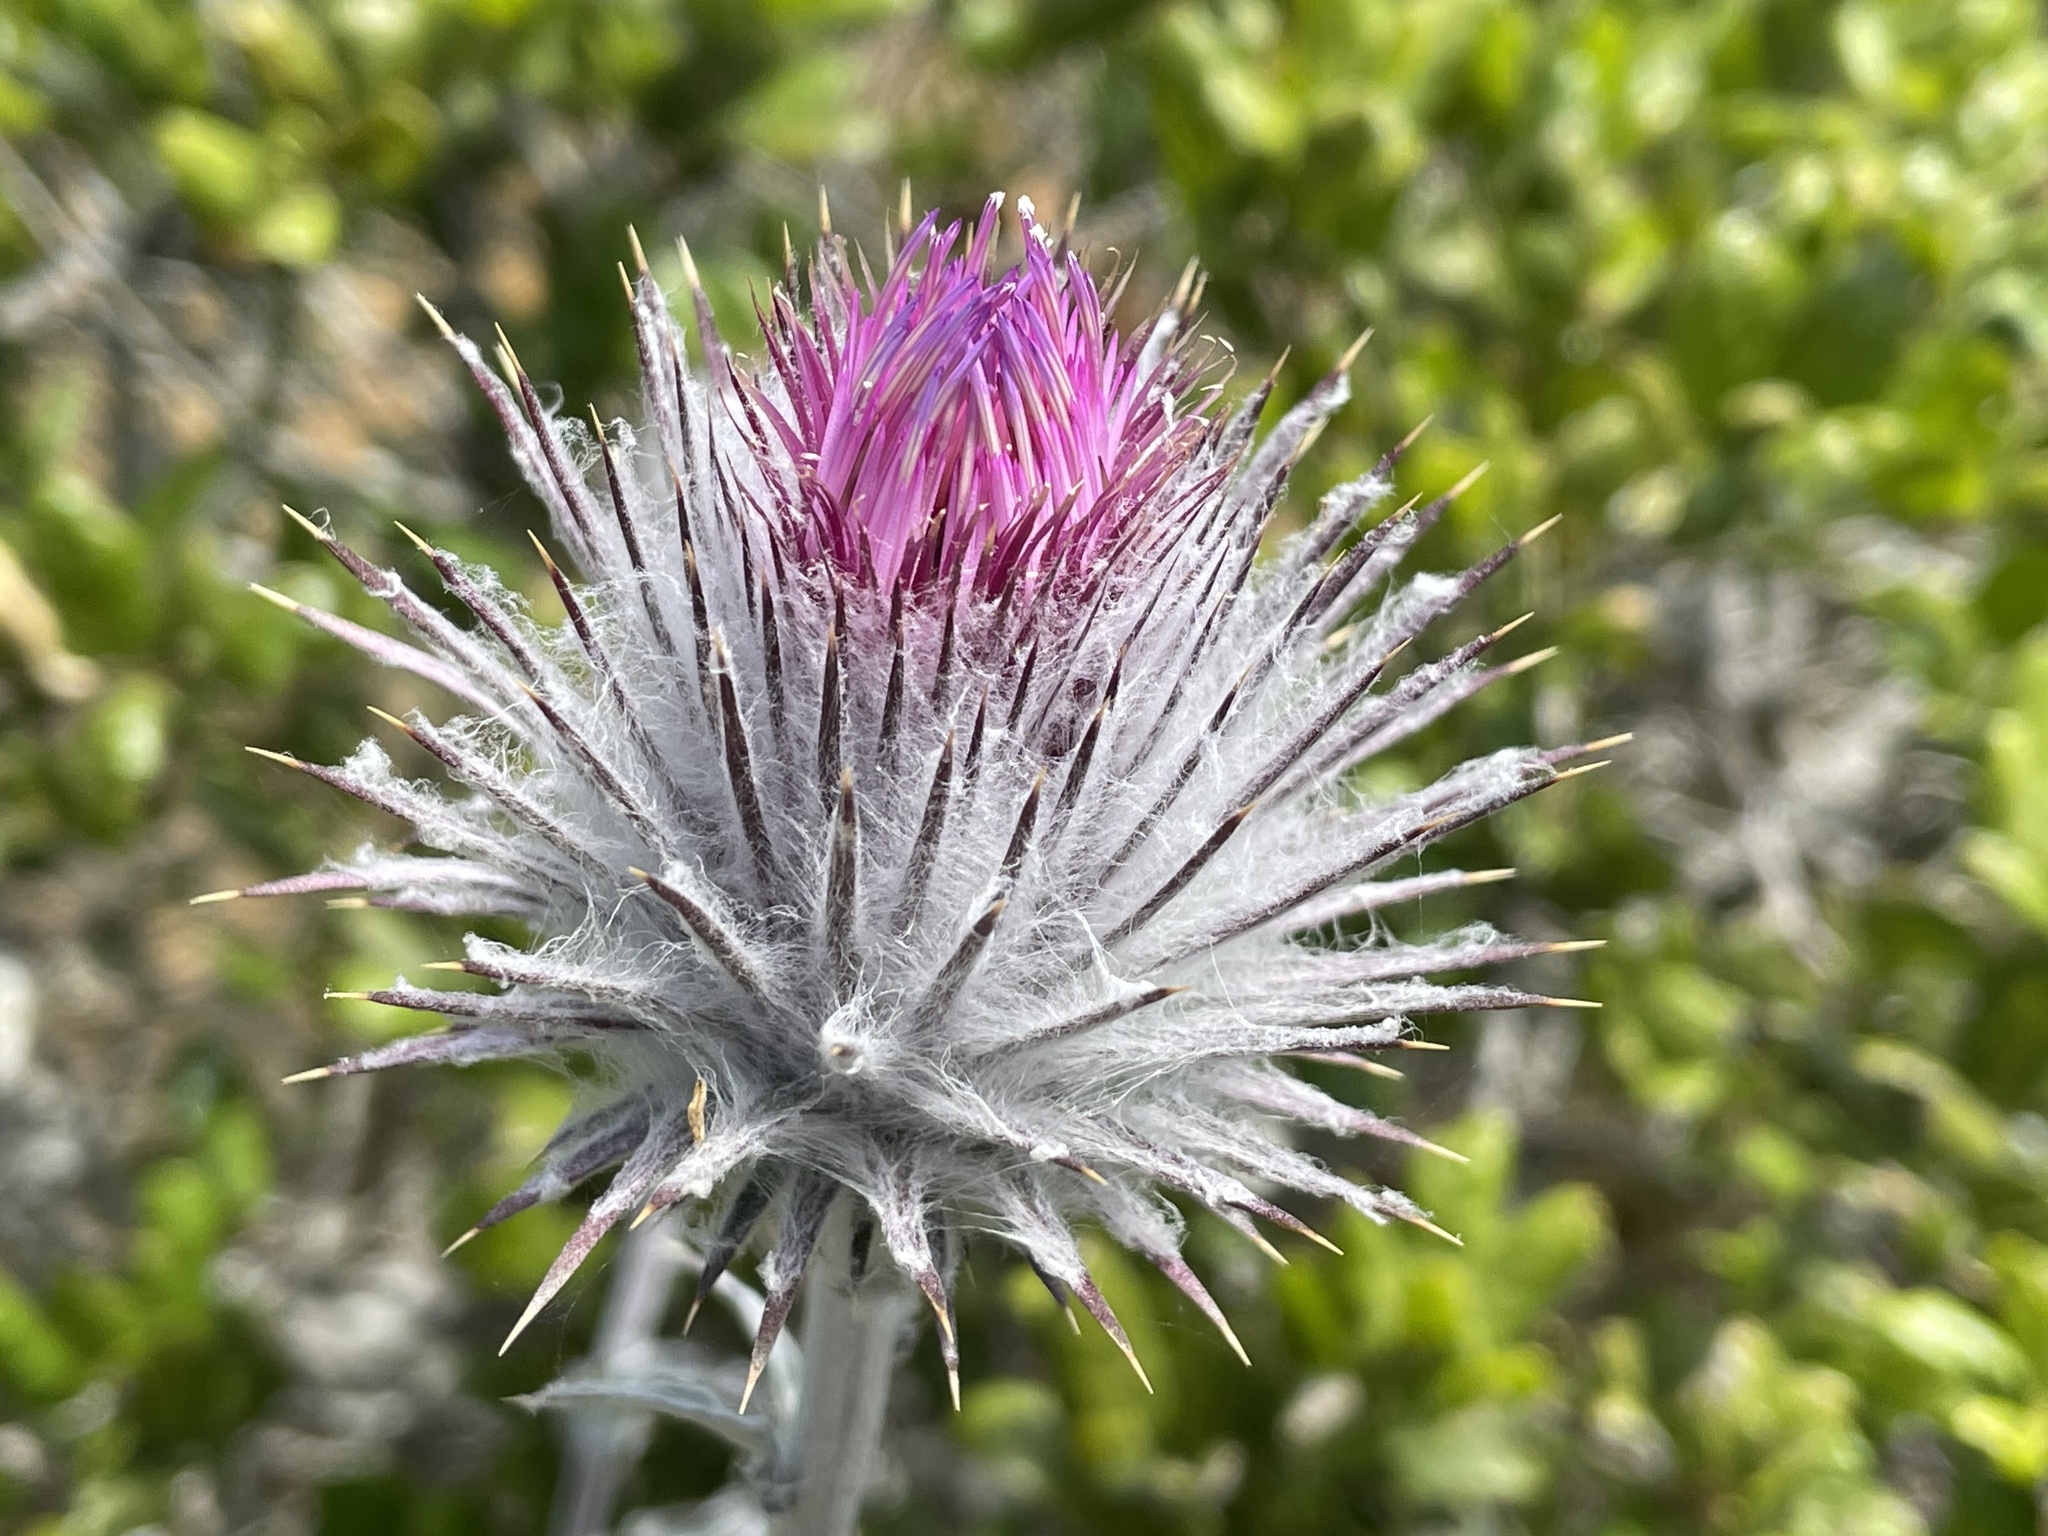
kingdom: Plantae
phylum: Tracheophyta
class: Magnoliopsida
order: Asterales
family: Asteraceae
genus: Cirsium
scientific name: Cirsium occidentale
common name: Western thistle
